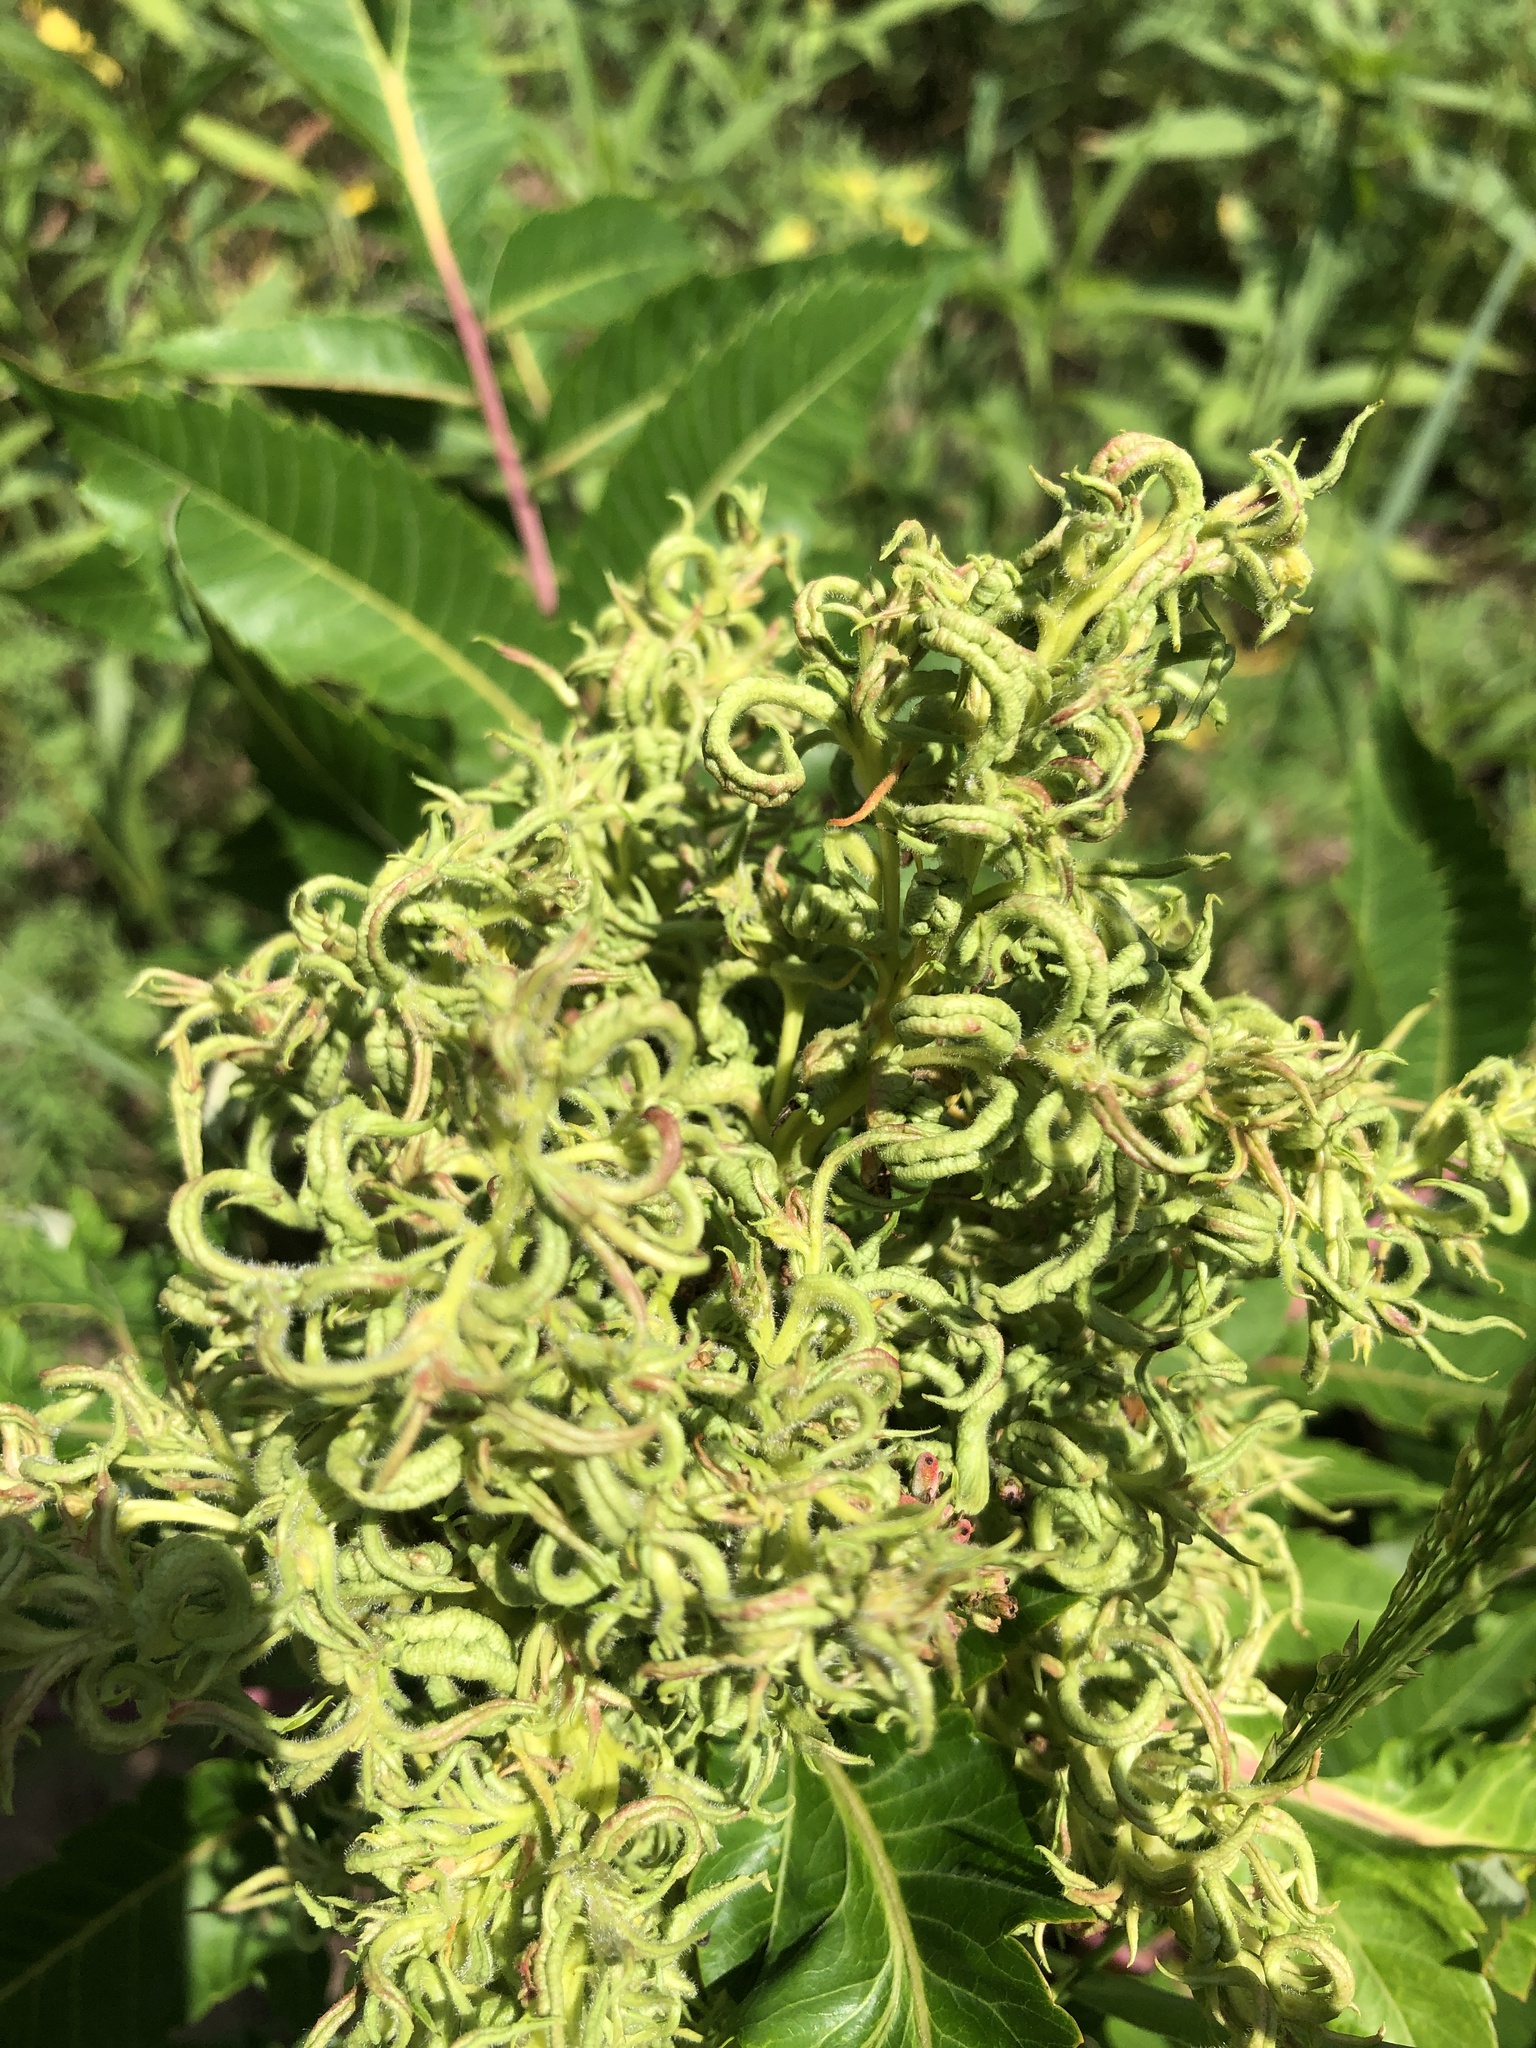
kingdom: Plantae
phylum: Tracheophyta
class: Magnoliopsida
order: Sapindales
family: Anacardiaceae
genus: Rhus
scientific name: Rhus glabra
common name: Scarlet sumac
